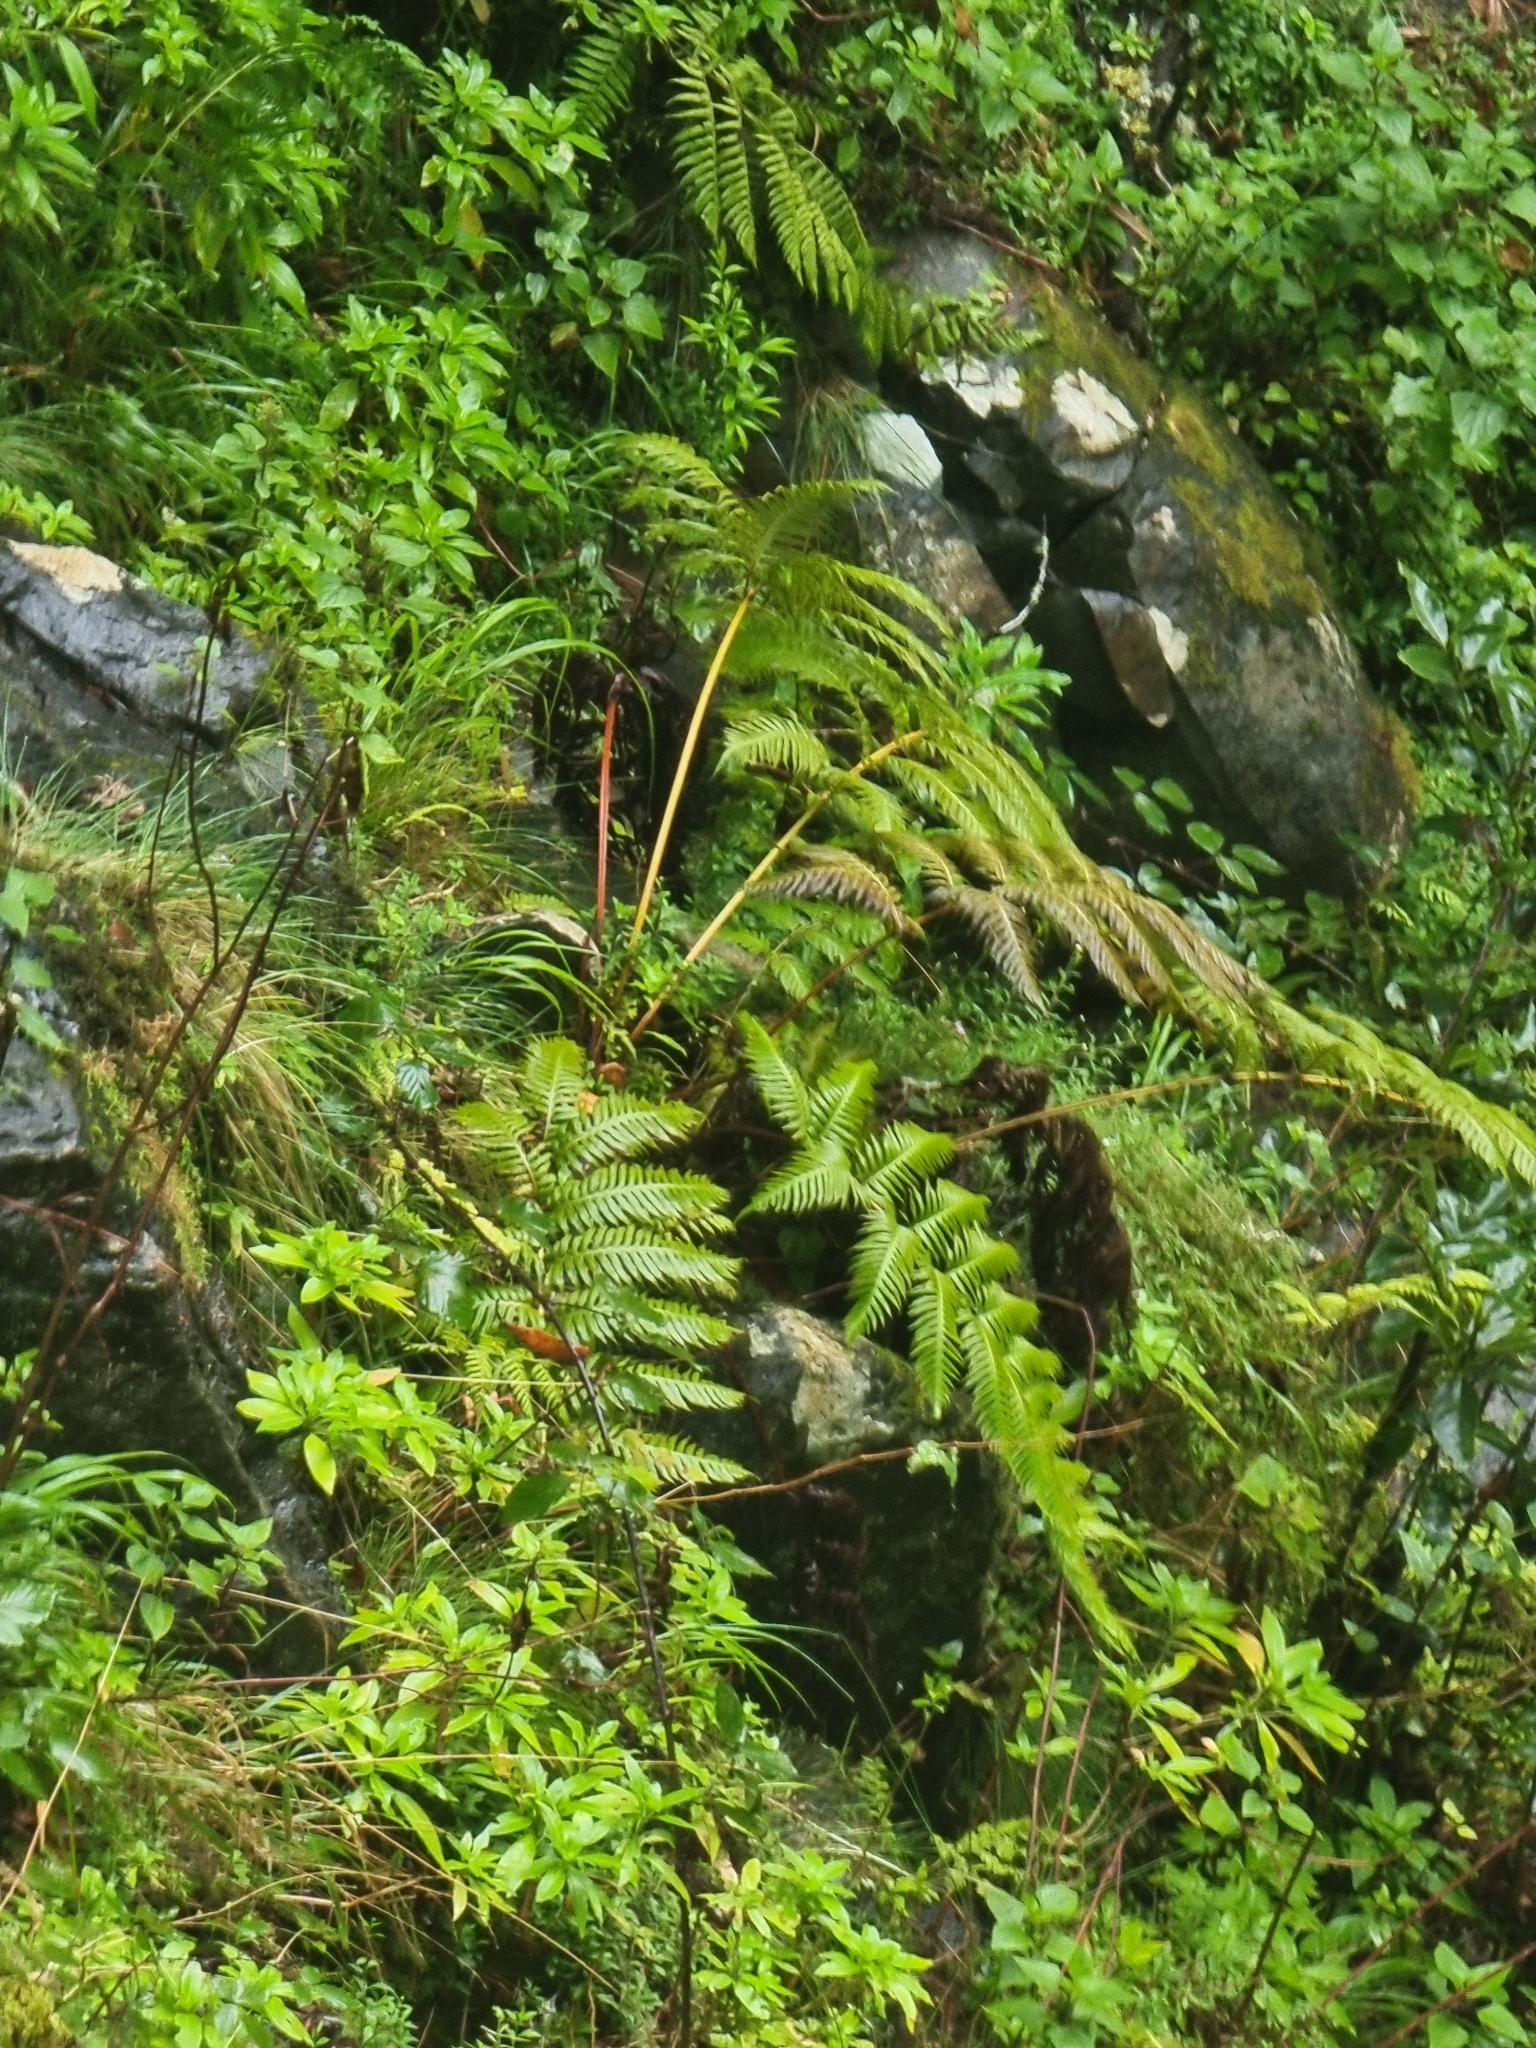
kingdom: Plantae
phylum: Tracheophyta
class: Polypodiopsida
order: Polypodiales
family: Blechnaceae
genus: Woodwardia
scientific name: Woodwardia radicans
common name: Rooting chainfern
